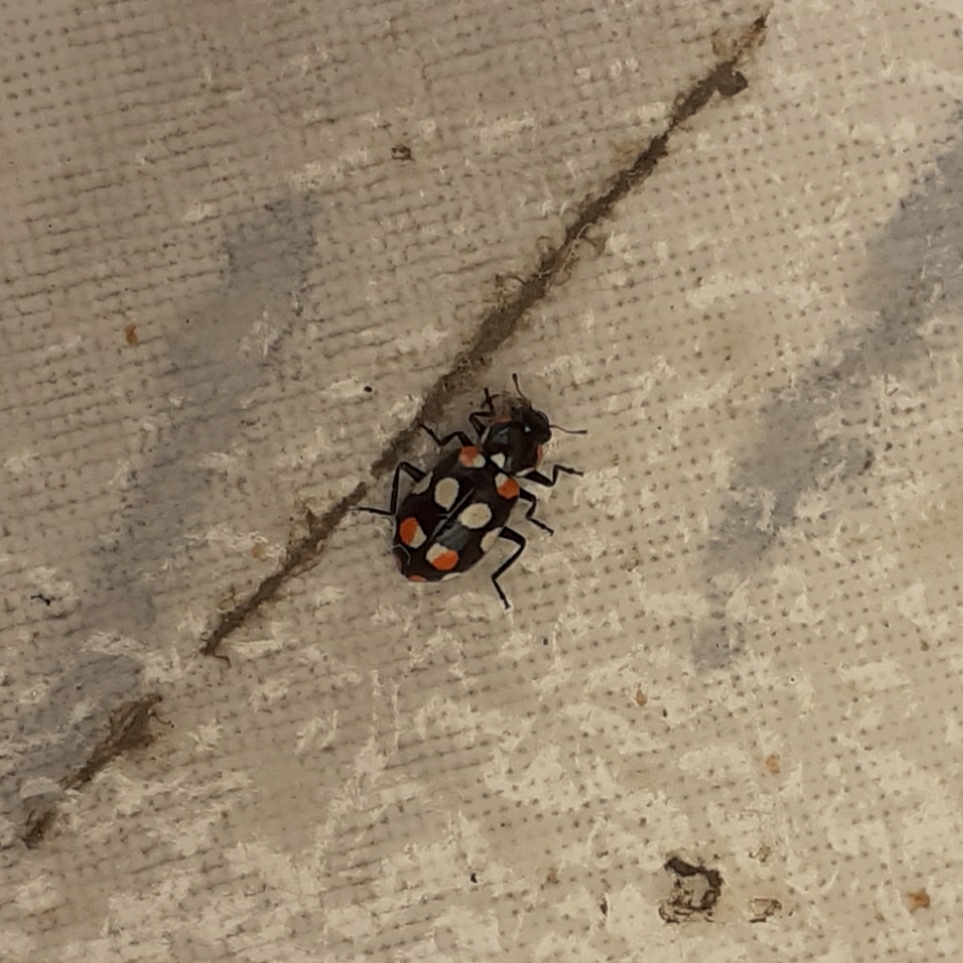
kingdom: Animalia
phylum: Arthropoda
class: Insecta
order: Coleoptera
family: Coccinellidae
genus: Eriopis
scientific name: Eriopis connexa
